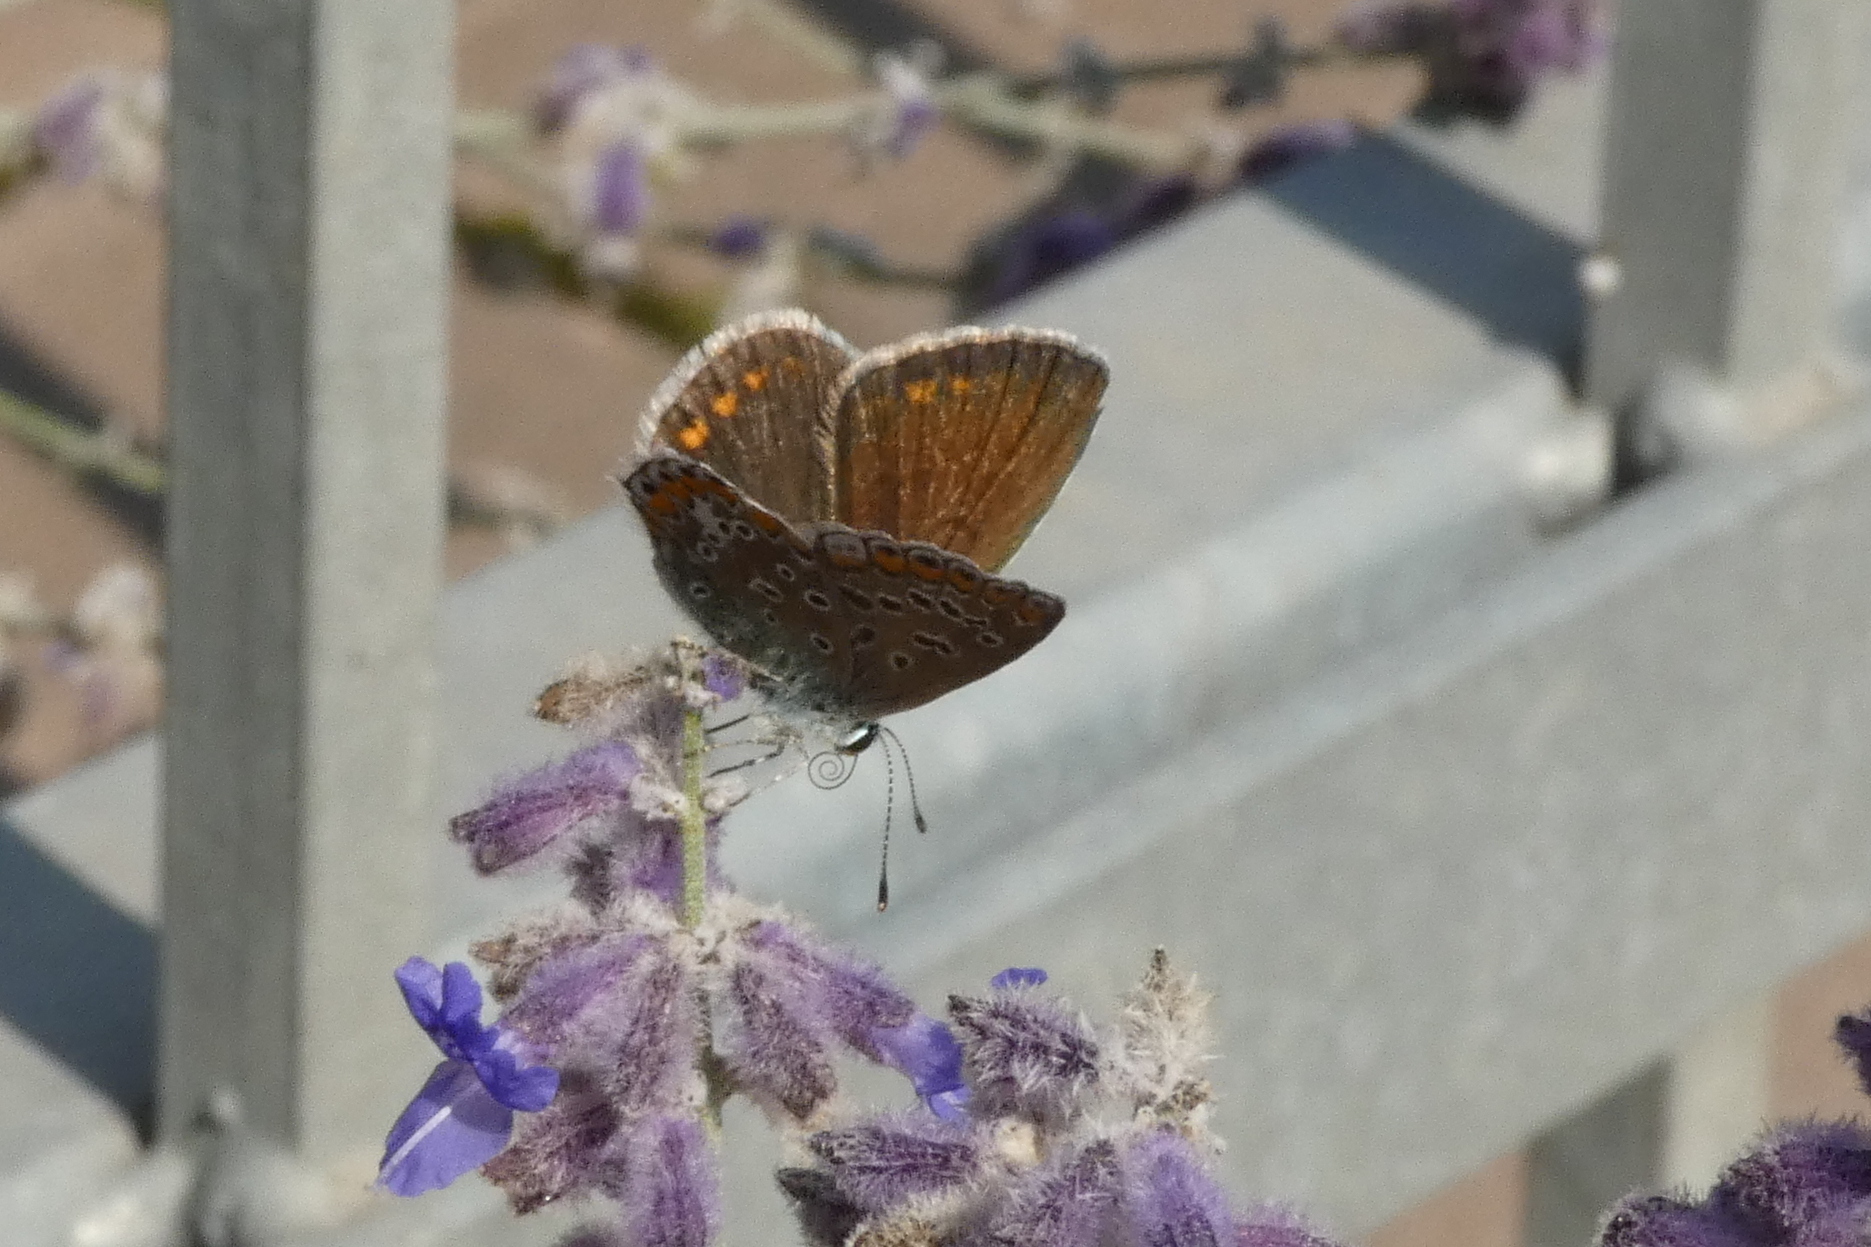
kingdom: Animalia
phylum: Arthropoda
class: Insecta
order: Lepidoptera
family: Lycaenidae
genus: Polyommatus
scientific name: Polyommatus icarus
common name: Common blue
